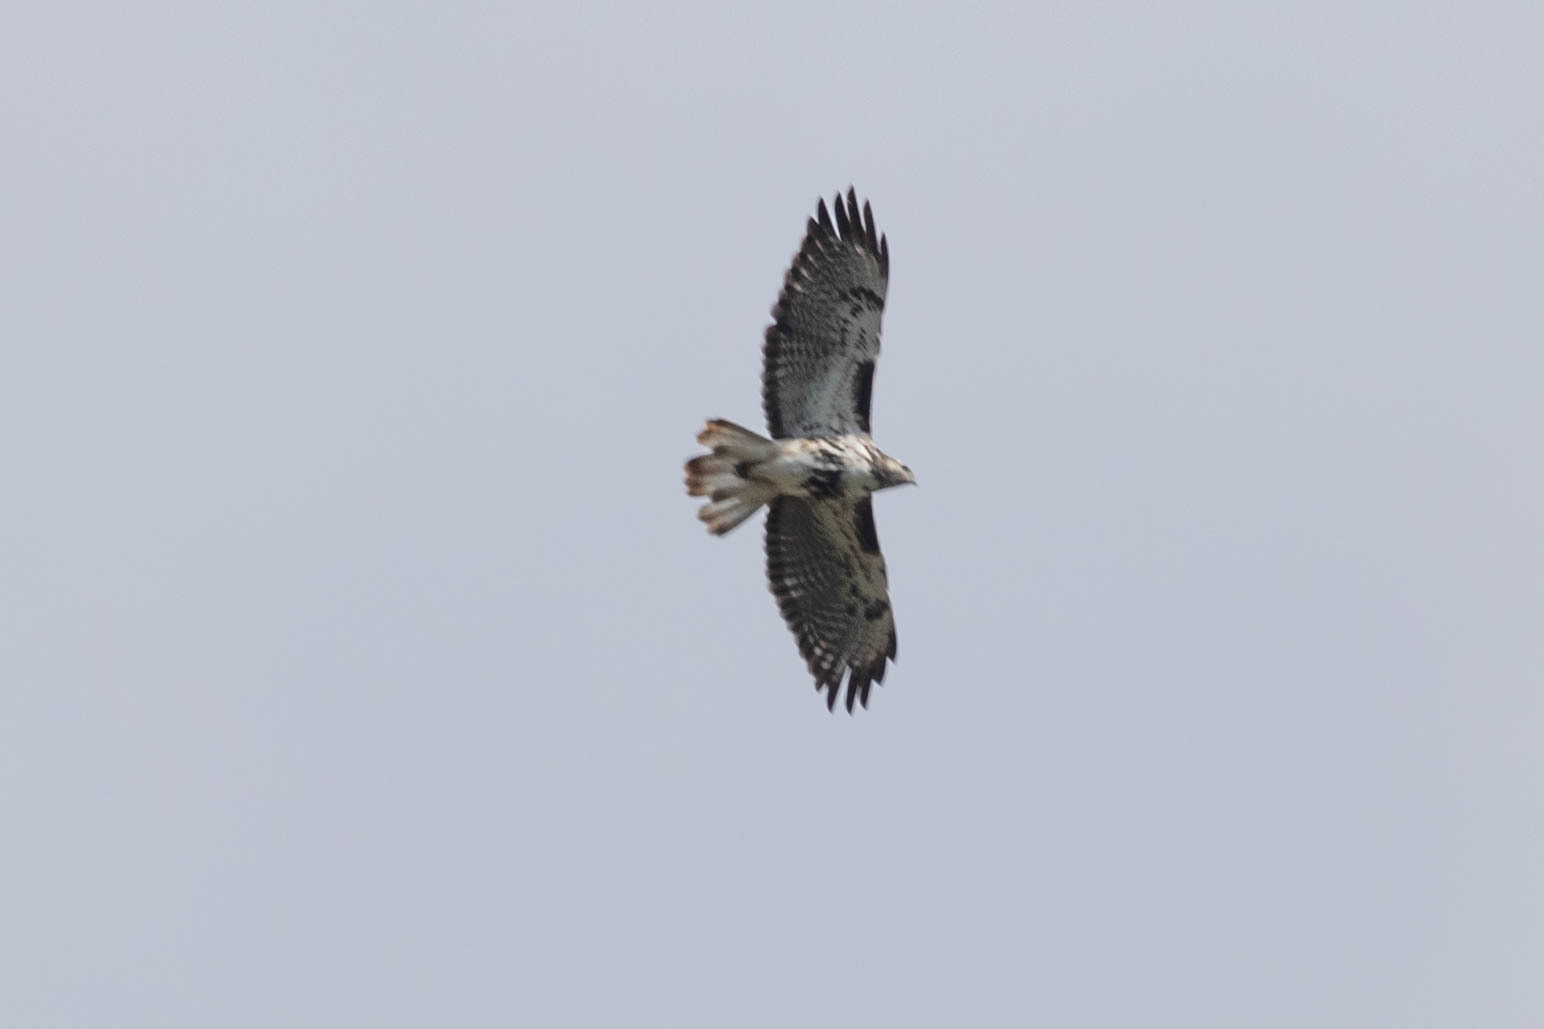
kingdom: Animalia
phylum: Chordata
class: Aves
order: Accipitriformes
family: Accipitridae
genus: Buteo
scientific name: Buteo jamaicensis
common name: Red-tailed hawk
